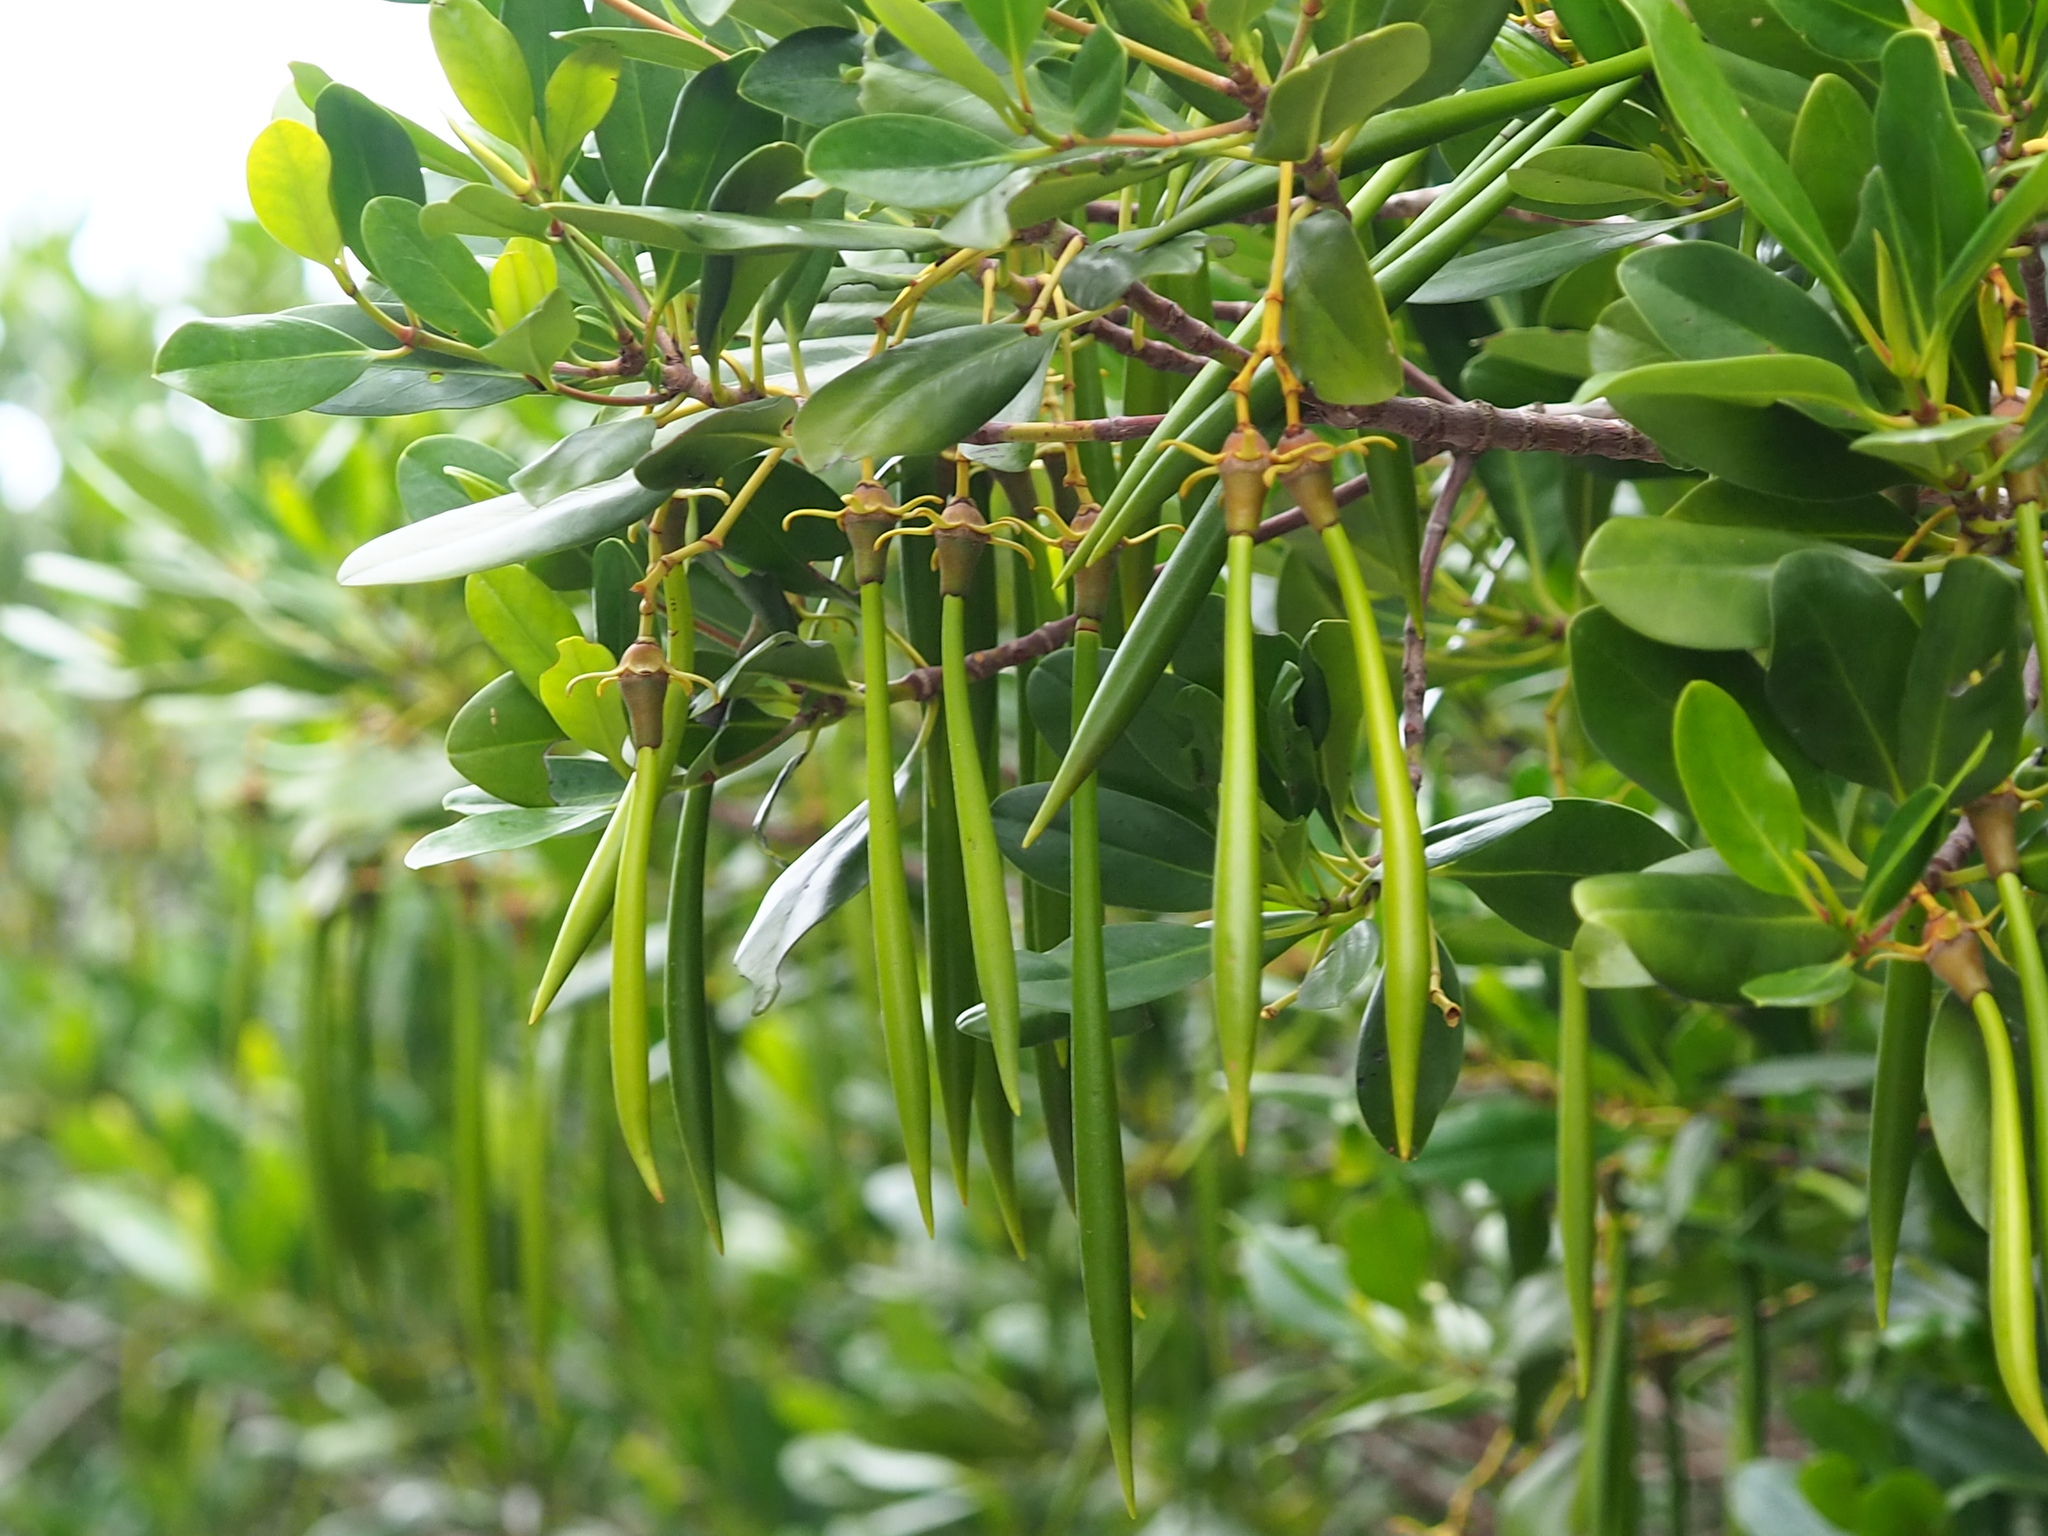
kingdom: Plantae
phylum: Tracheophyta
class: Magnoliopsida
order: Malpighiales
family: Rhizophoraceae
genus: Kandelia
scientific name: Kandelia obovata
